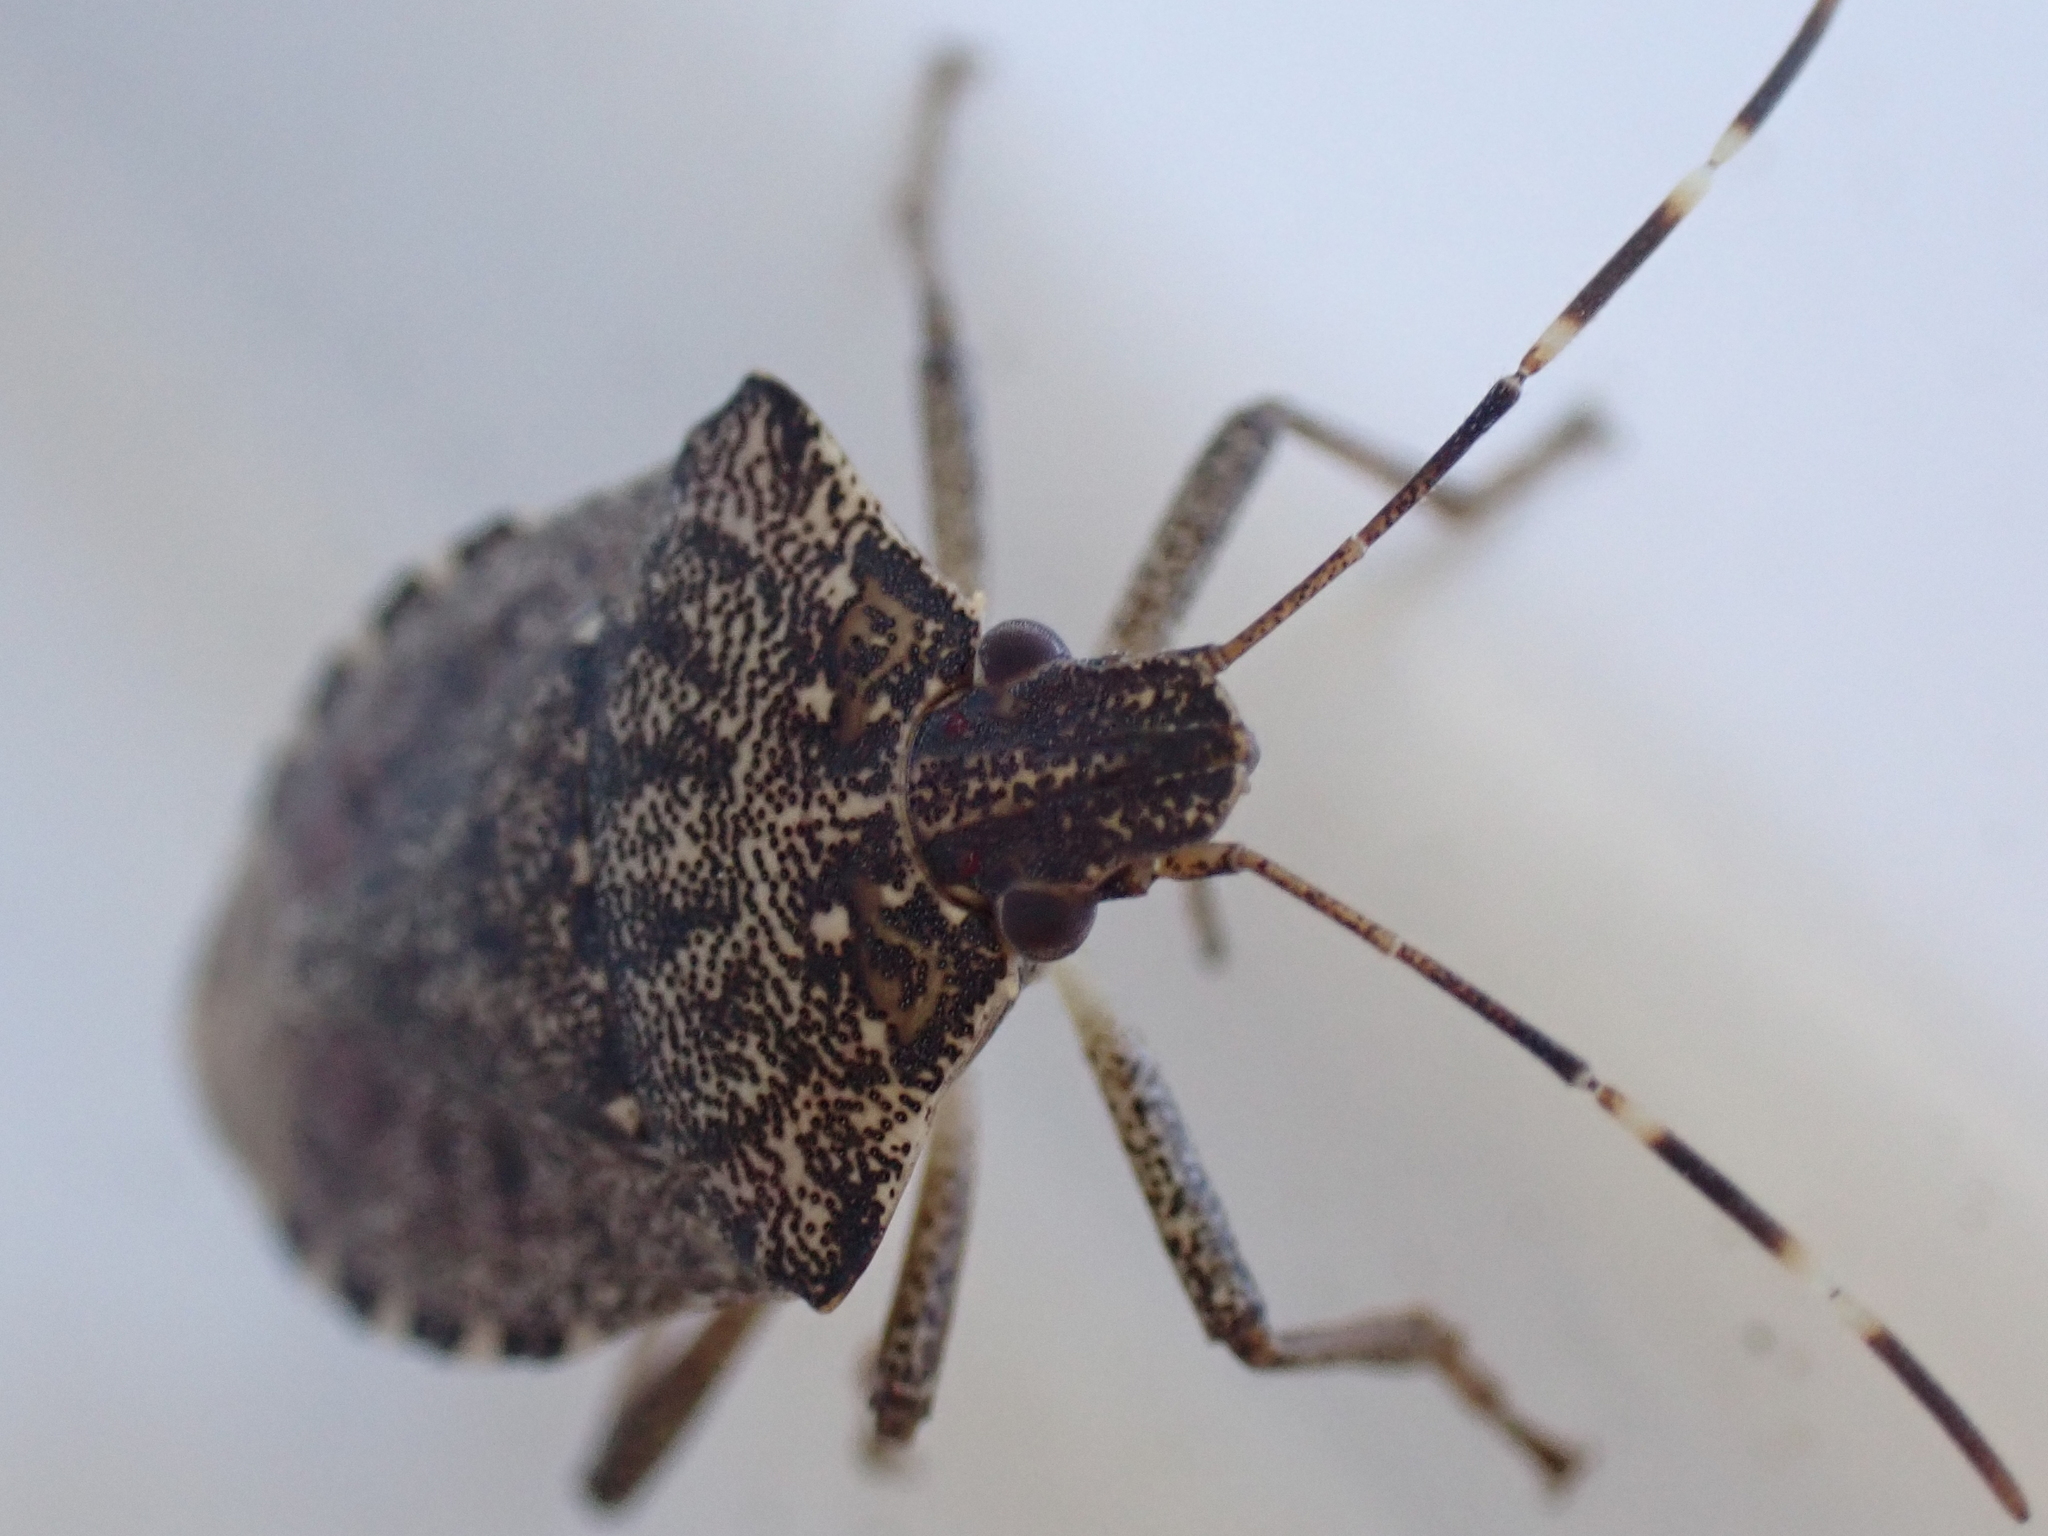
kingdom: Animalia
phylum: Arthropoda
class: Insecta
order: Hemiptera
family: Pentatomidae
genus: Halyomorpha
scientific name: Halyomorpha halys
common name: Brown marmorated stink bug
